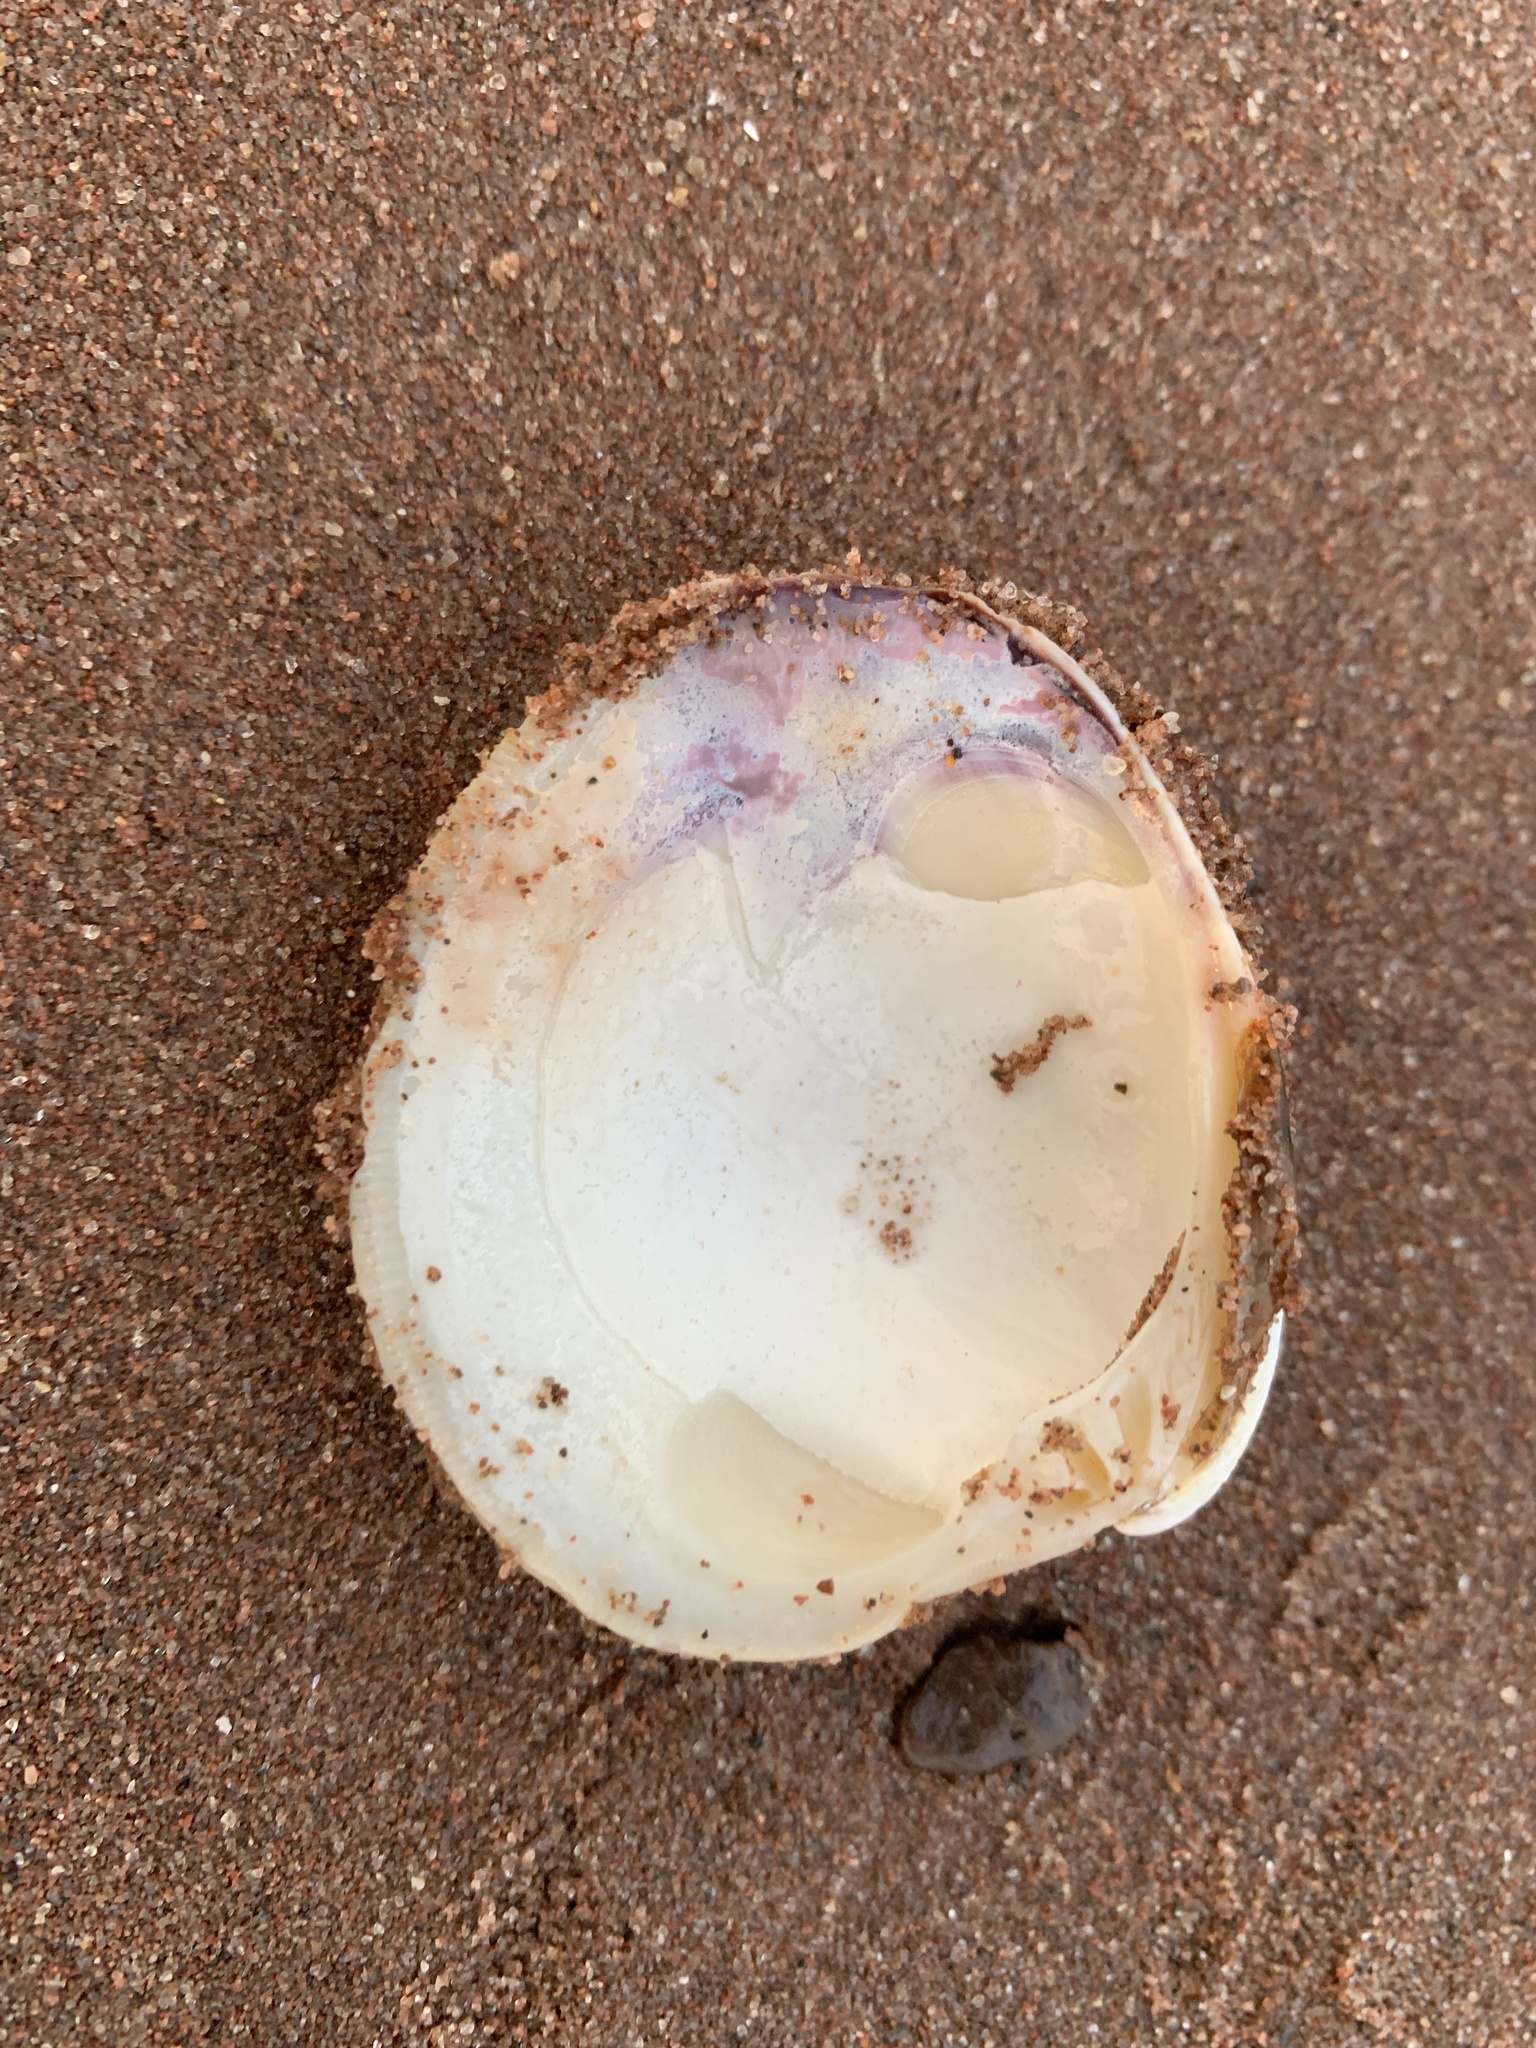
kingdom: Animalia
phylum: Mollusca
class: Bivalvia
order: Venerida
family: Veneridae
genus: Mercenaria
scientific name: Mercenaria mercenaria
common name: American hard-shelled clam
